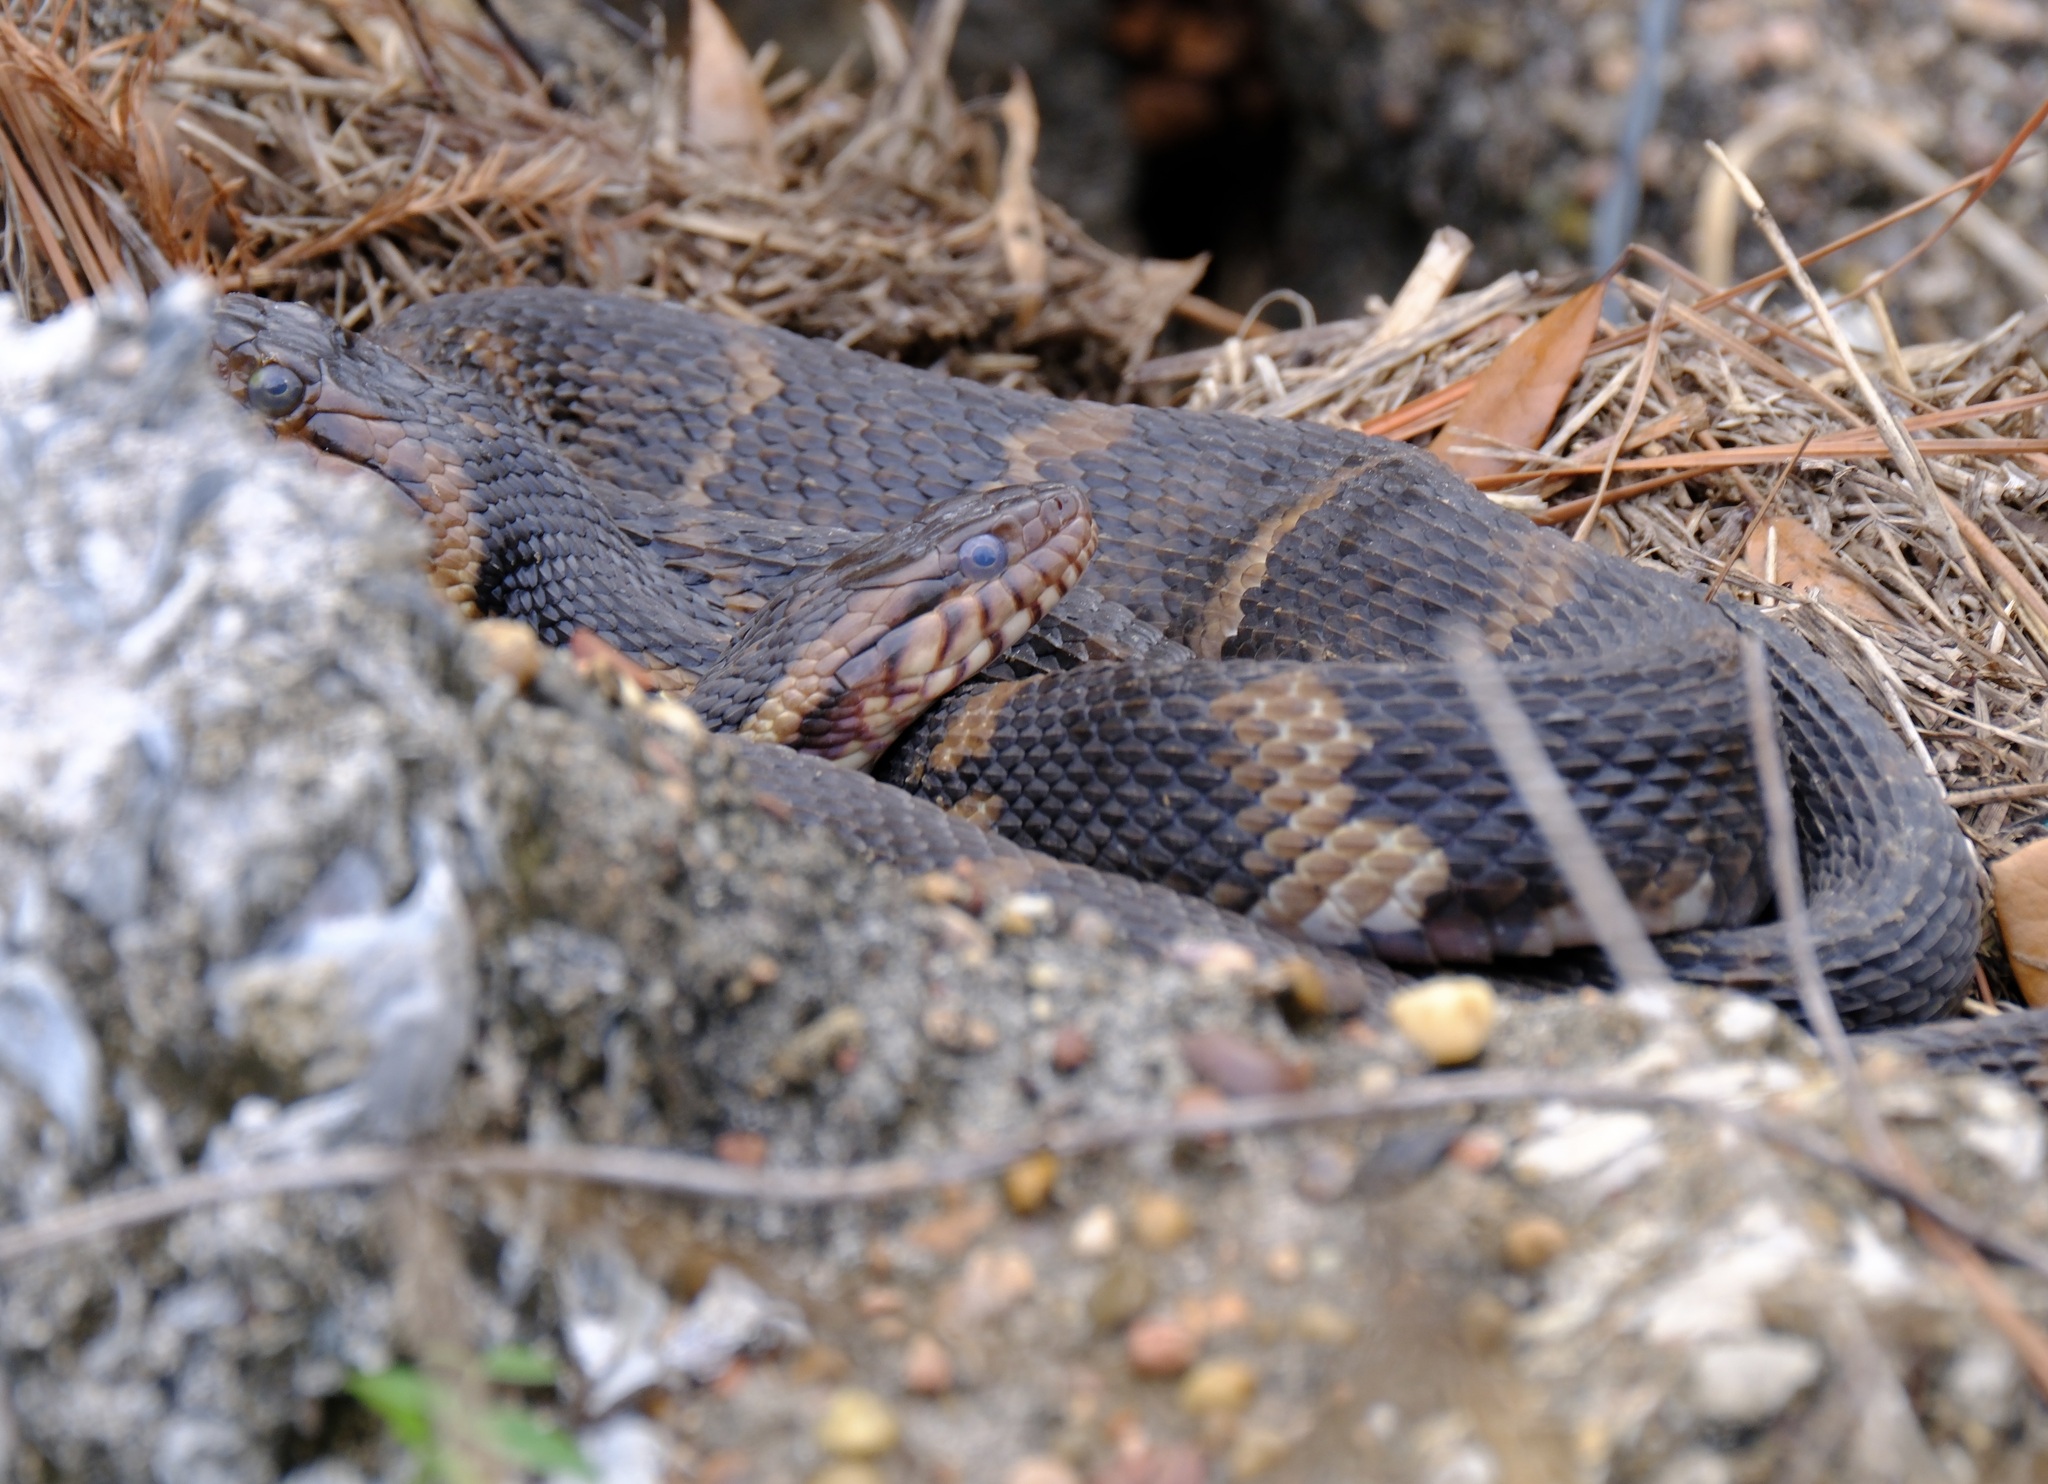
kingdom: Animalia
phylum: Chordata
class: Squamata
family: Colubridae
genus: Nerodia
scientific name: Nerodia fasciata
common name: Southern water snake
